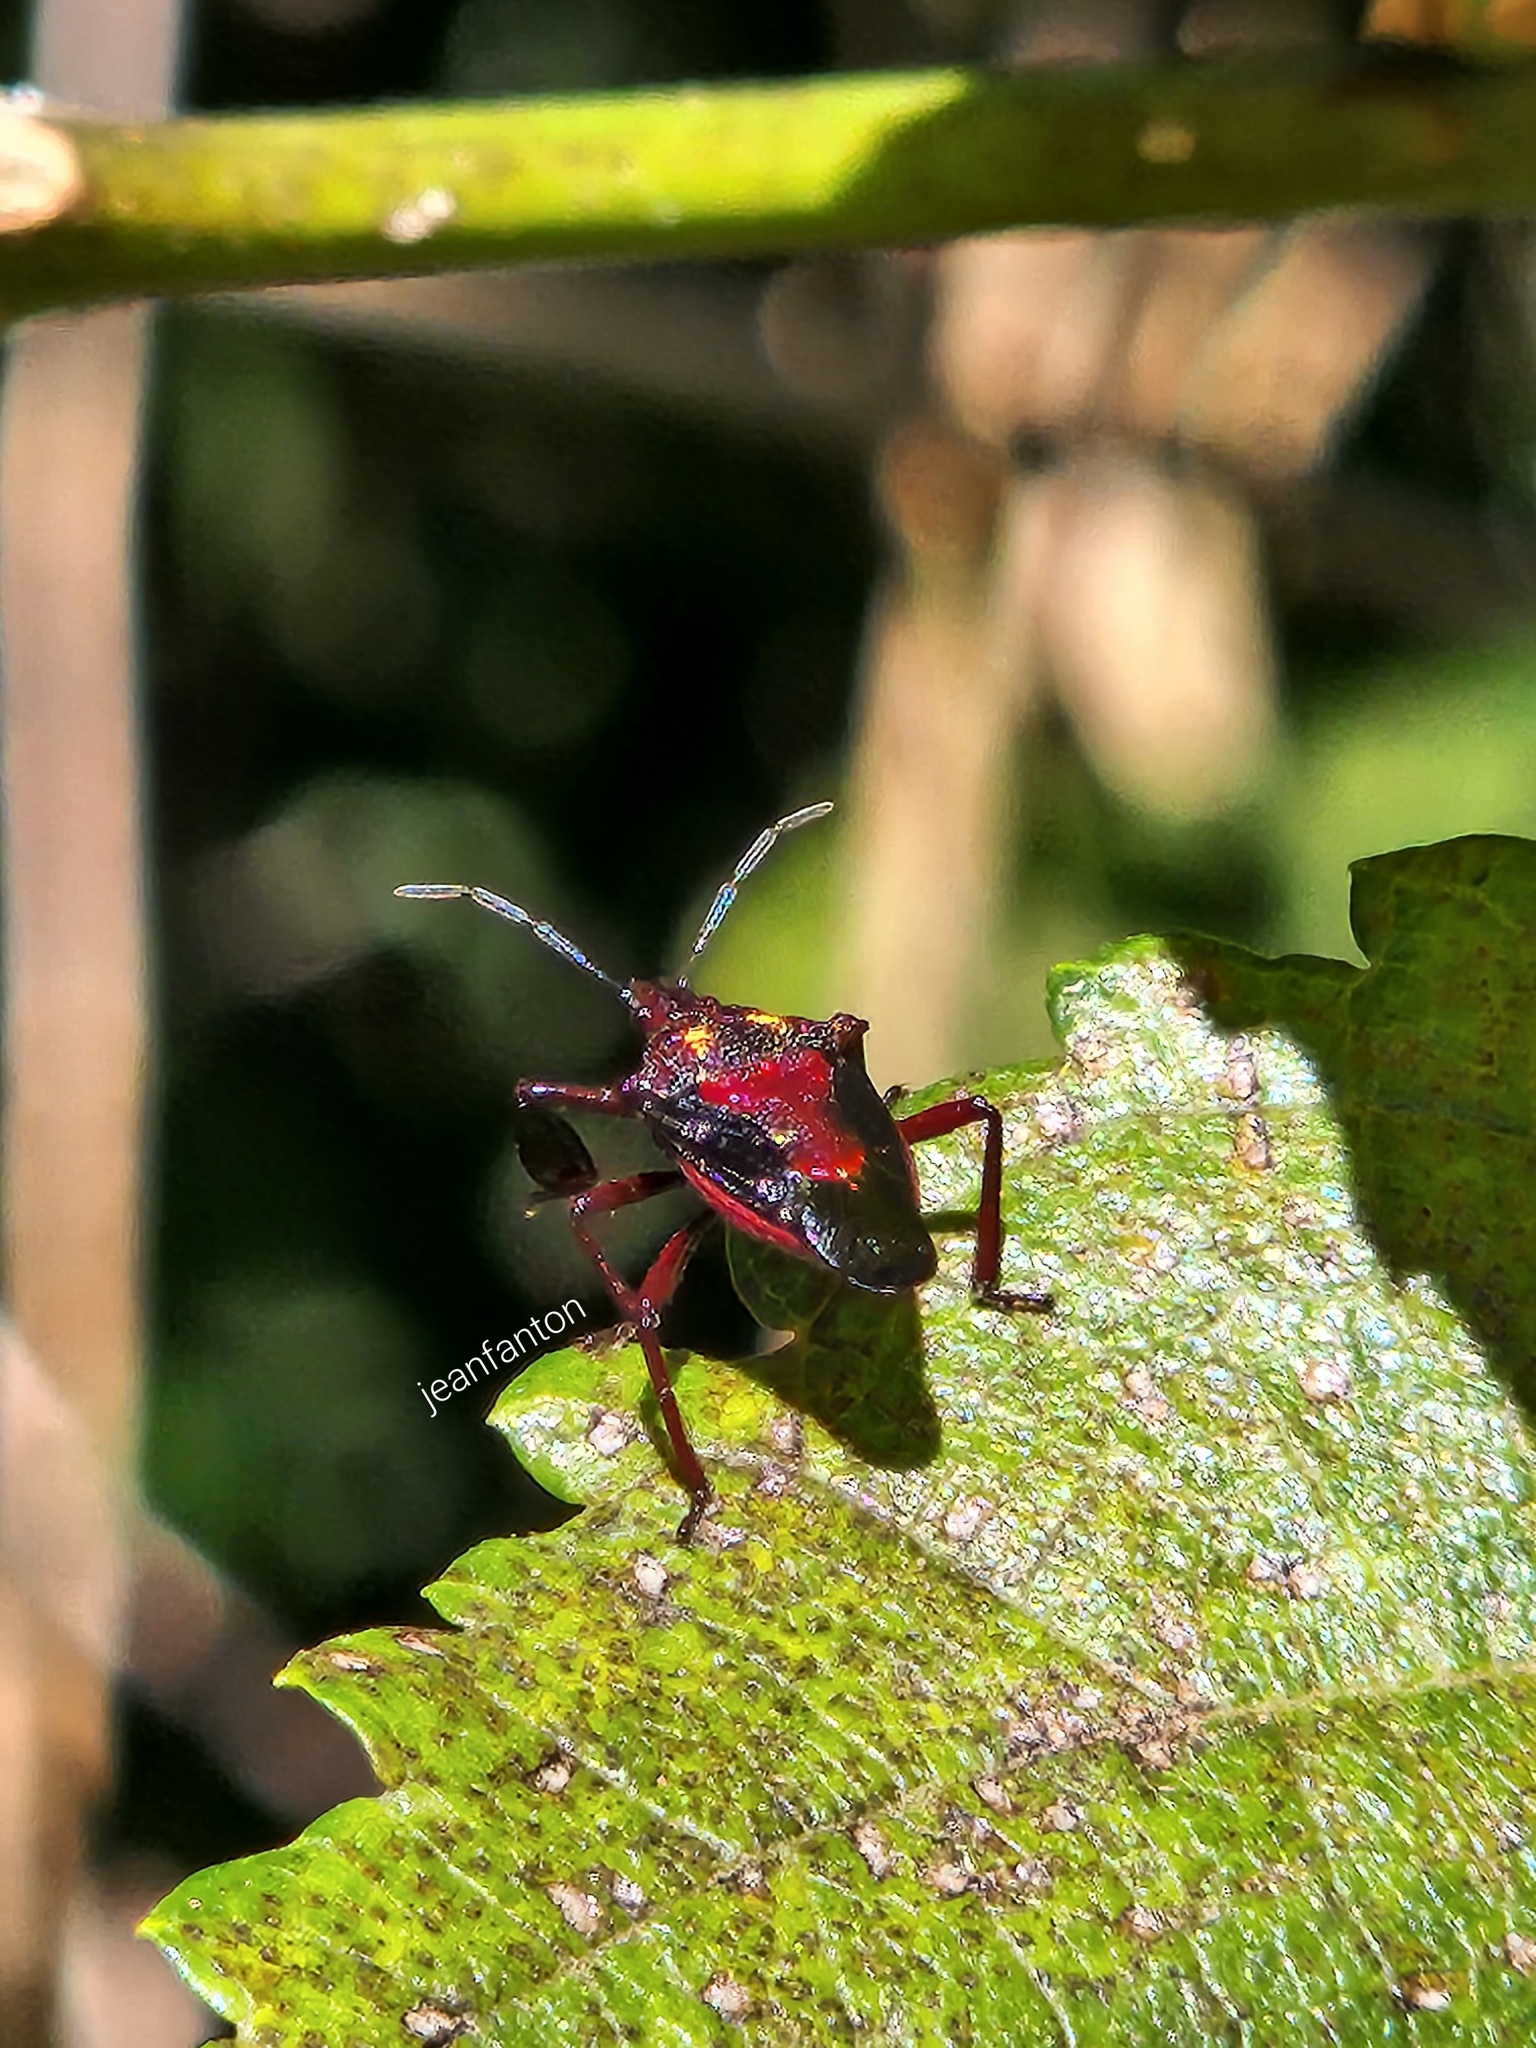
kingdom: Animalia
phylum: Arthropoda
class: Insecta
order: Hemiptera
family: Pentatomidae
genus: Heteroscelis
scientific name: Heteroscelis servillii
